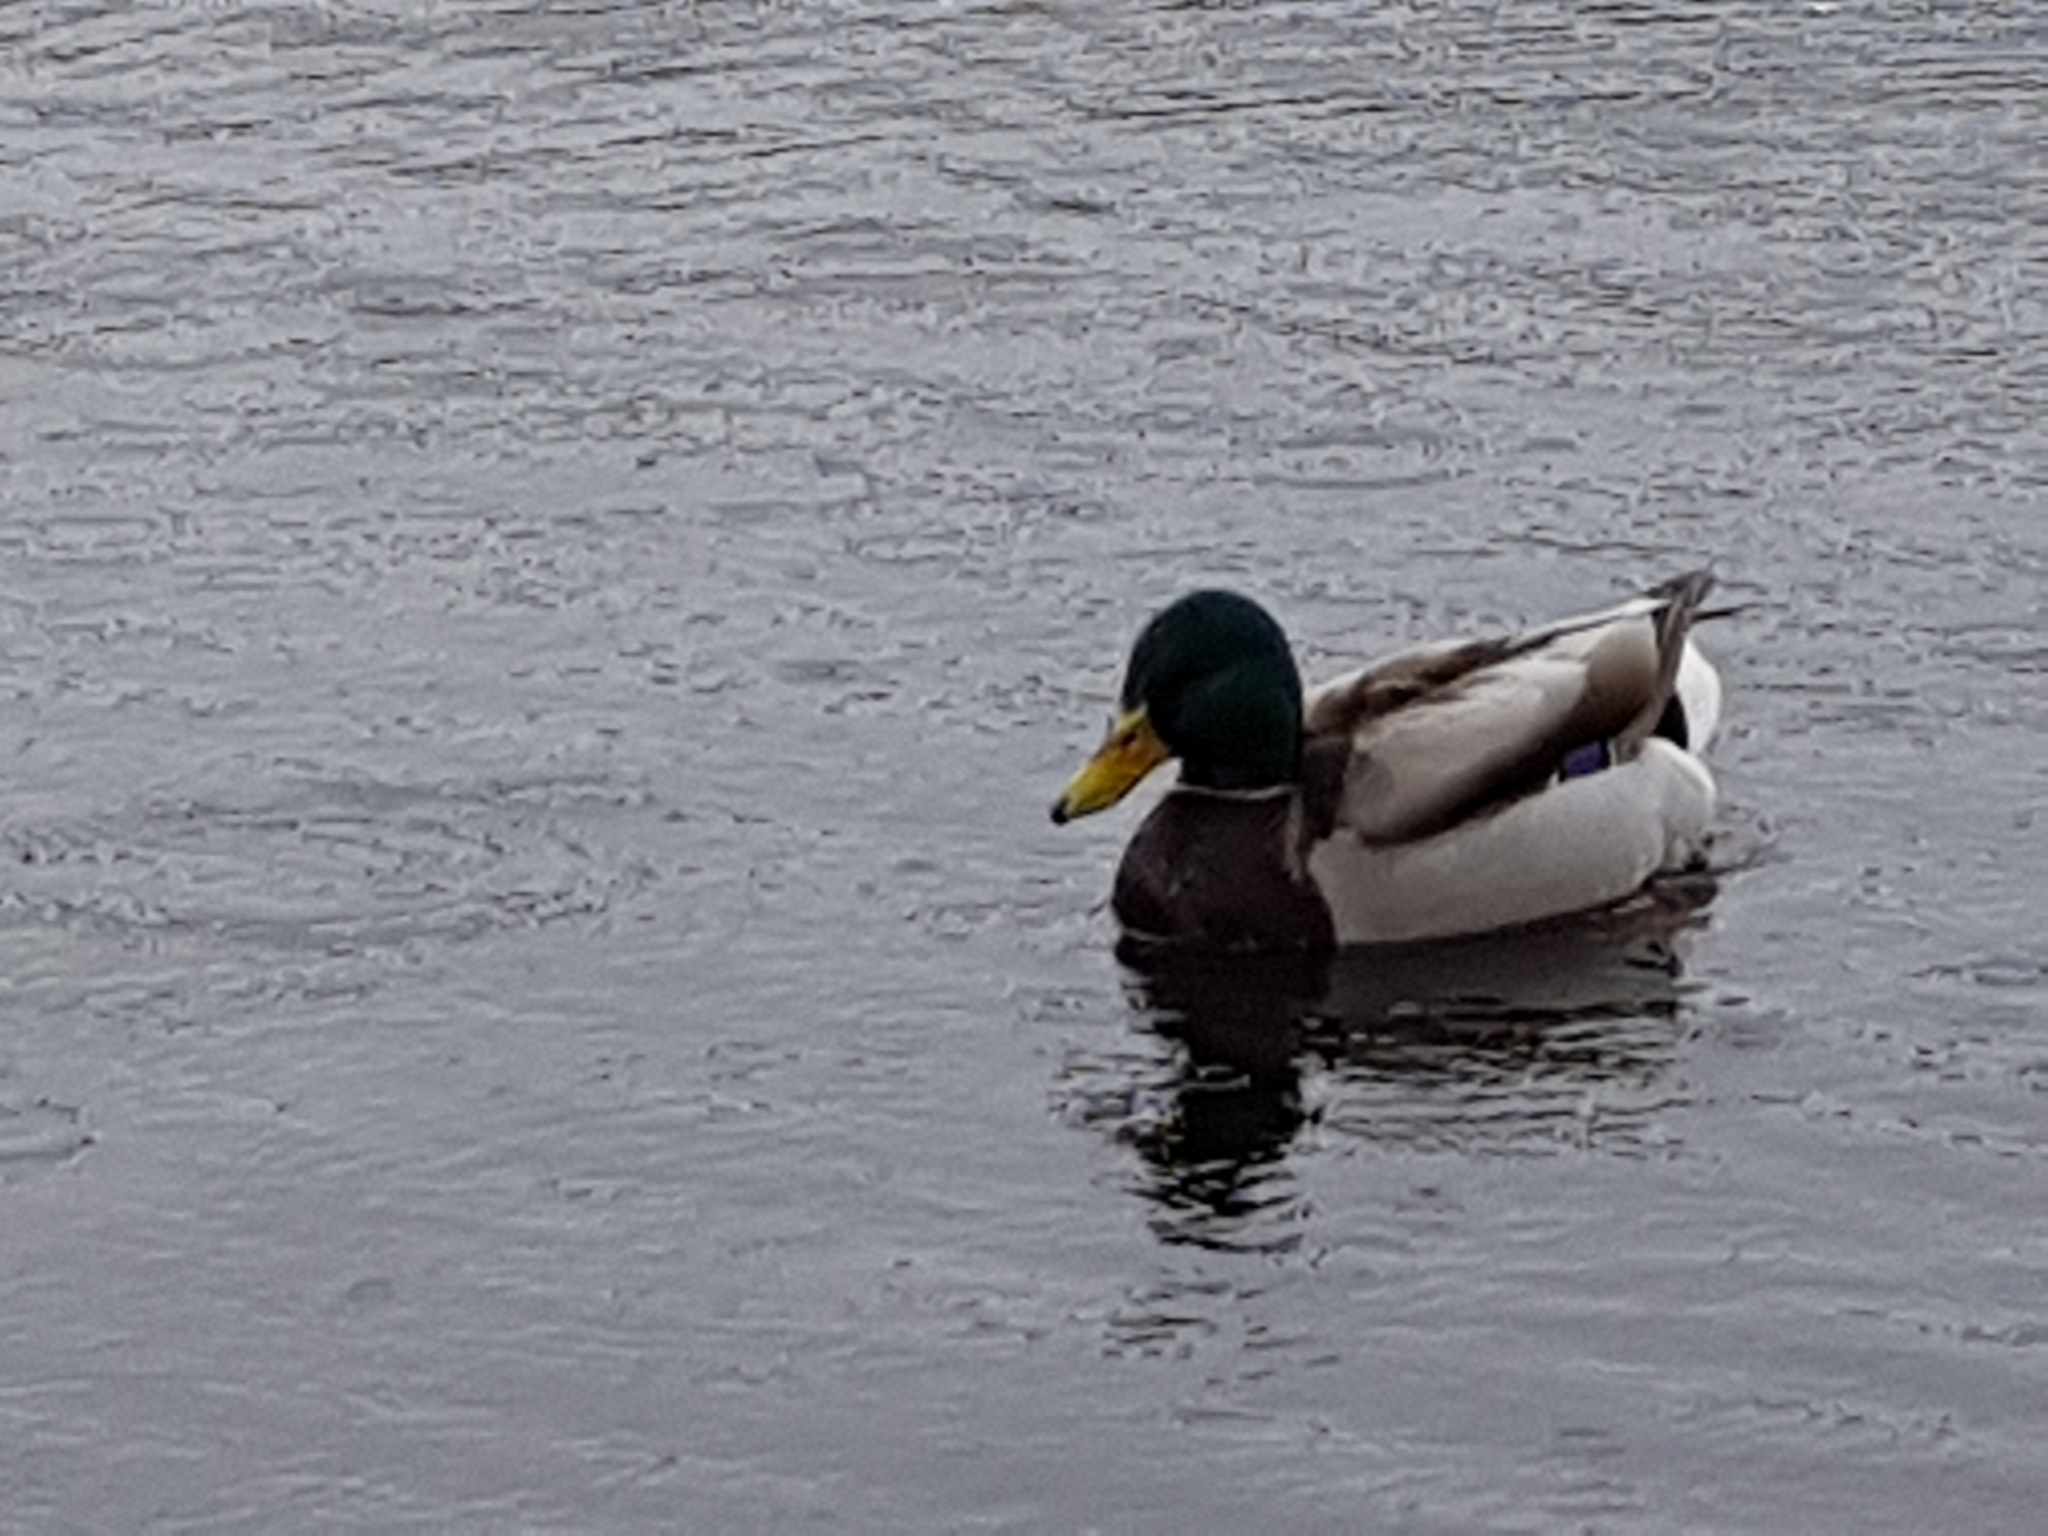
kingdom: Animalia
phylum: Chordata
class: Aves
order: Anseriformes
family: Anatidae
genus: Anas
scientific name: Anas platyrhynchos
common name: Mallard
